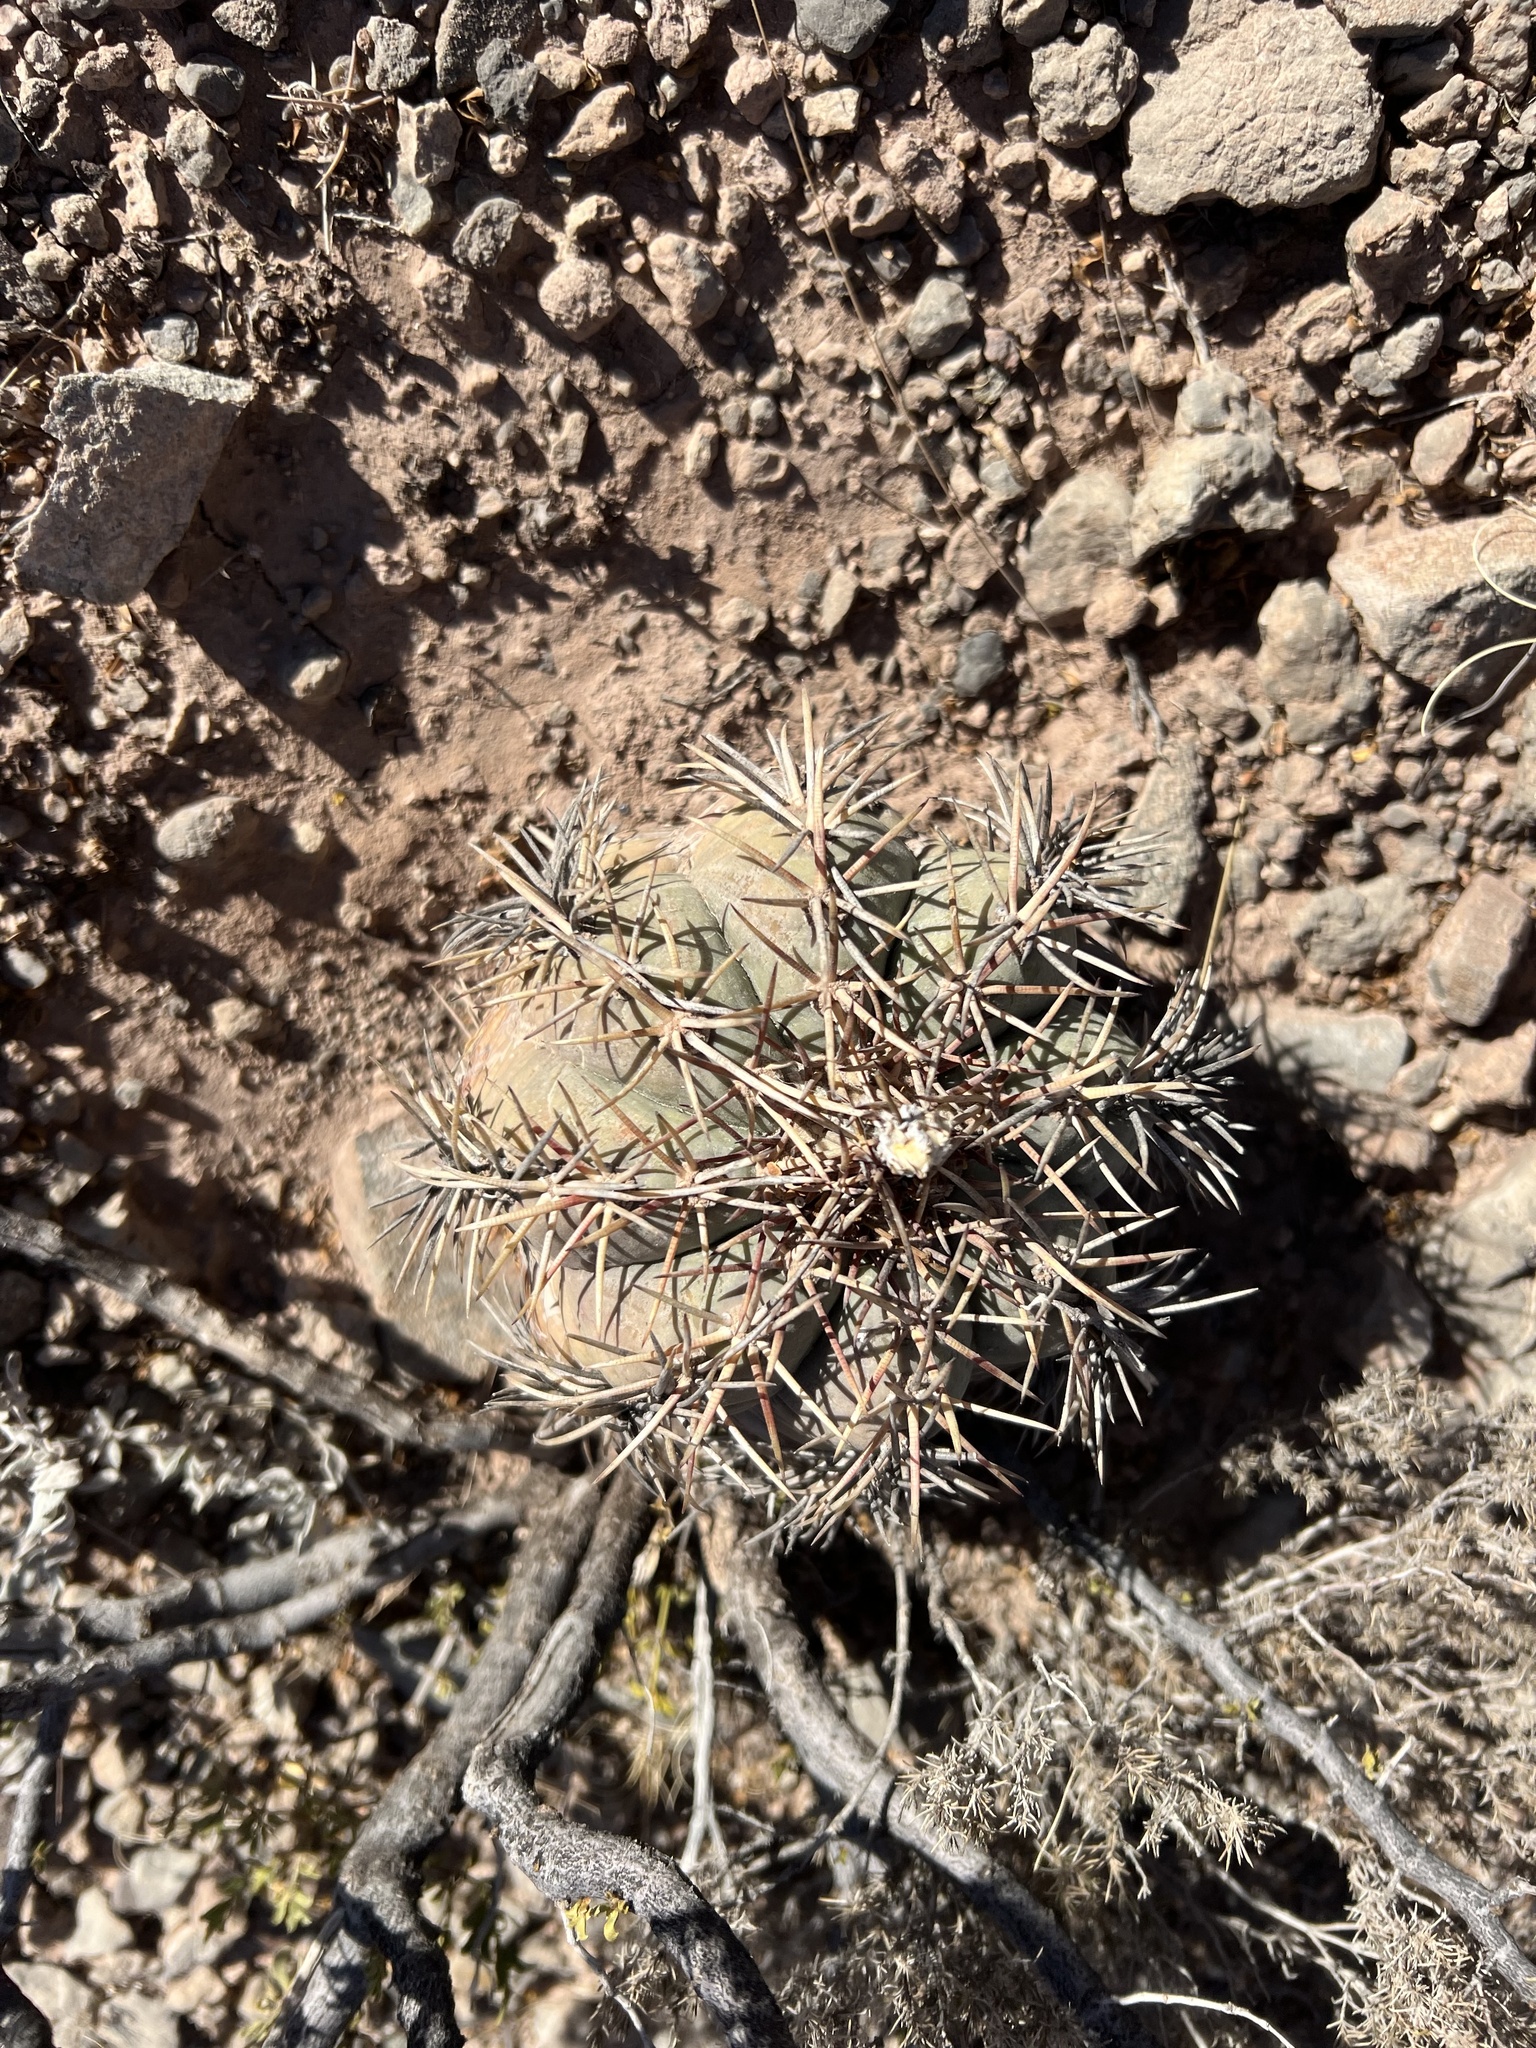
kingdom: Plantae
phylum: Tracheophyta
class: Magnoliopsida
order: Caryophyllales
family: Cactaceae
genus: Echinocactus
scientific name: Echinocactus horizonthalonius
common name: Devilshead
